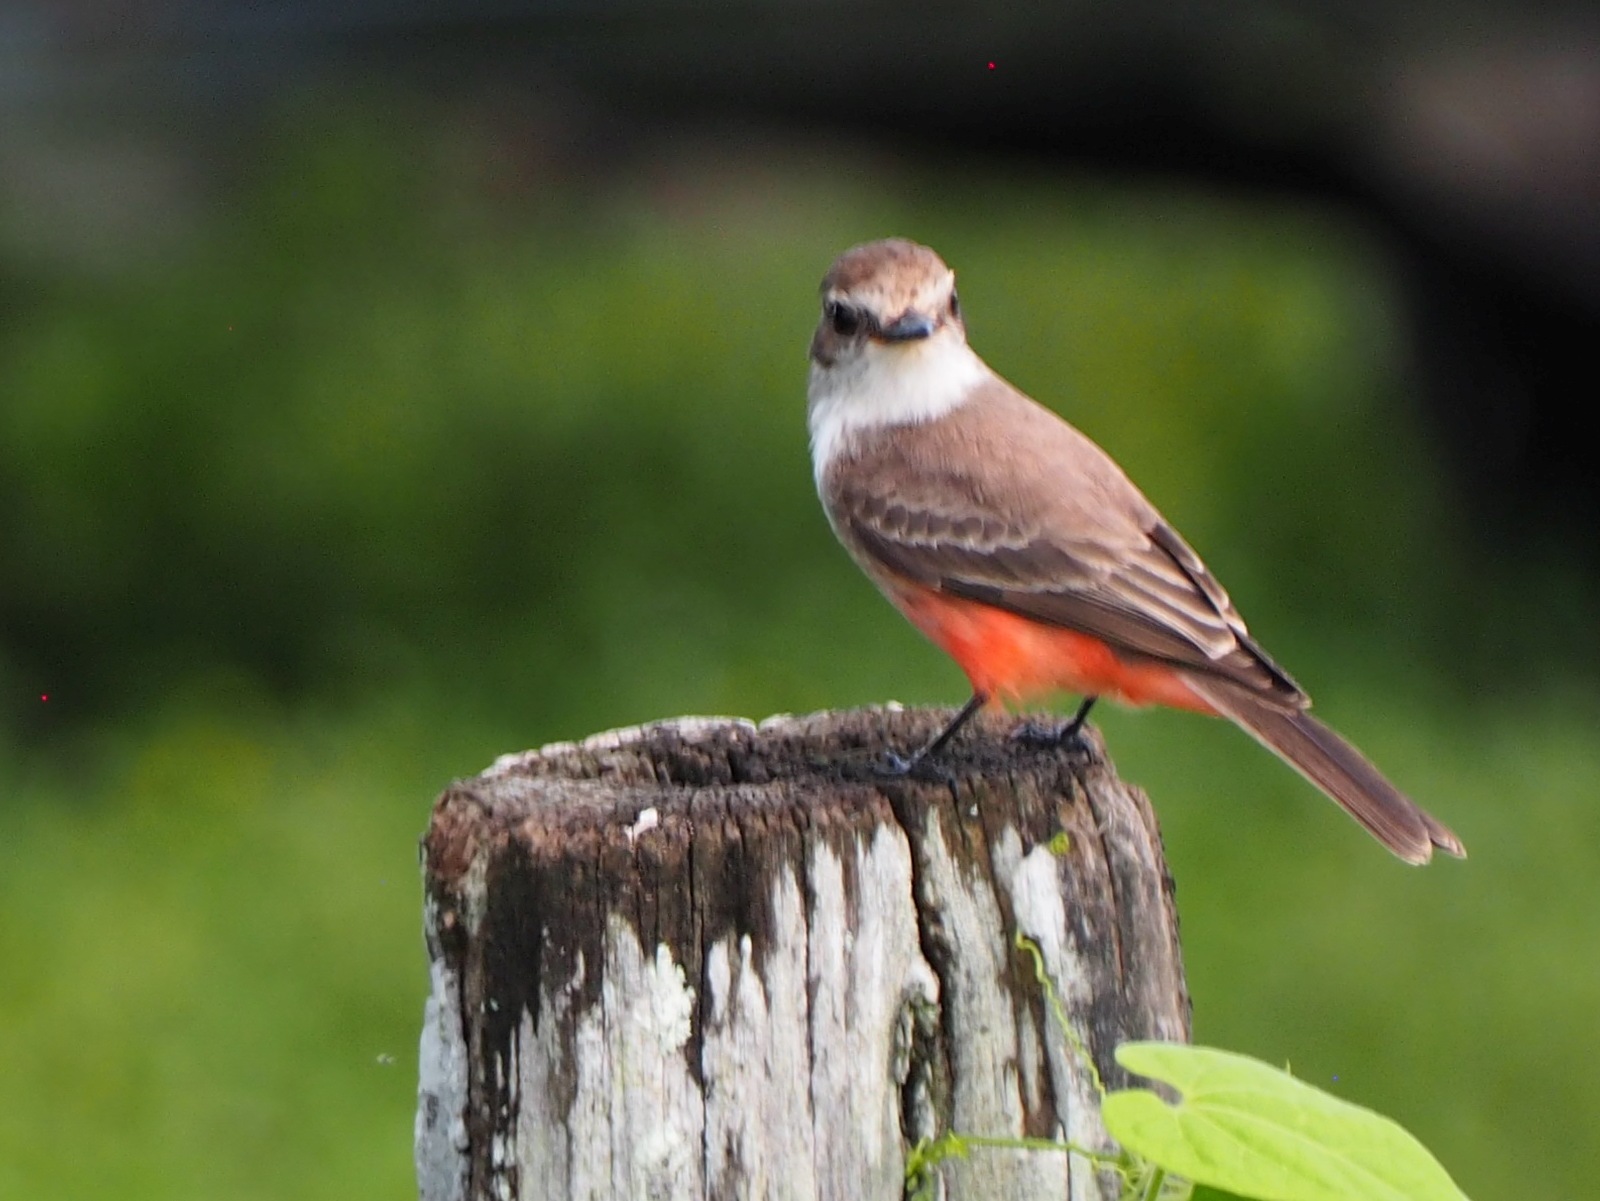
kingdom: Animalia
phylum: Chordata
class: Aves
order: Passeriformes
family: Tyrannidae
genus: Pyrocephalus
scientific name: Pyrocephalus rubinus
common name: Vermilion flycatcher
